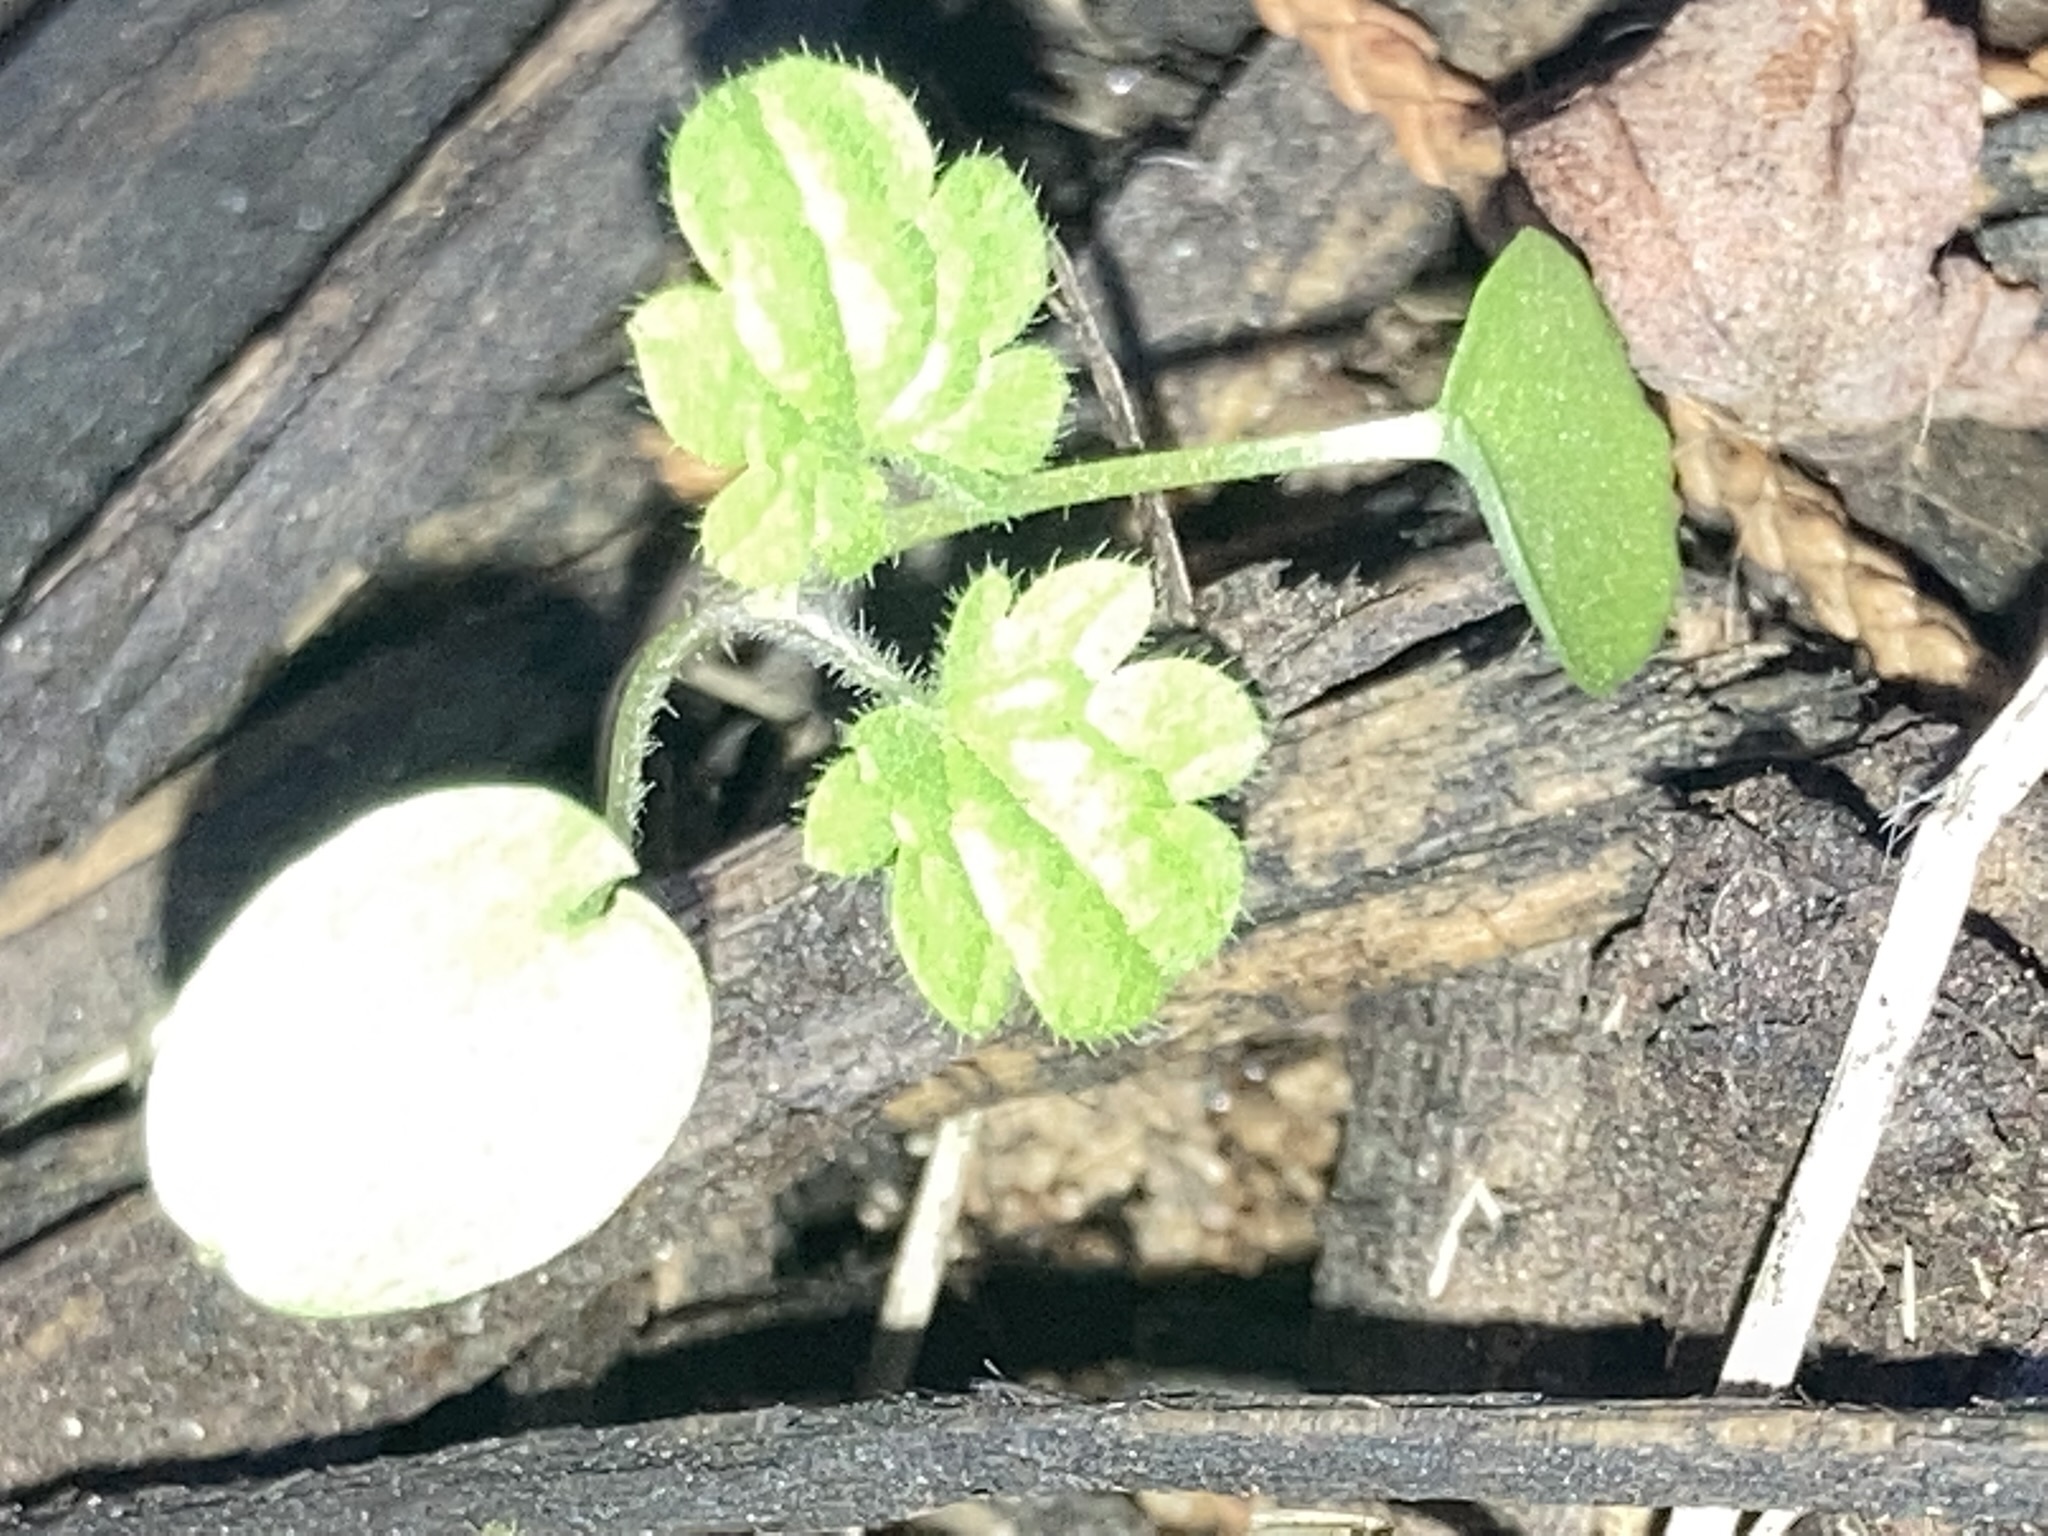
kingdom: Plantae
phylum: Tracheophyta
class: Magnoliopsida
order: Lamiales
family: Lamiaceae
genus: Lamium
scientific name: Lamium amplexicaule
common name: Henbit dead-nettle
